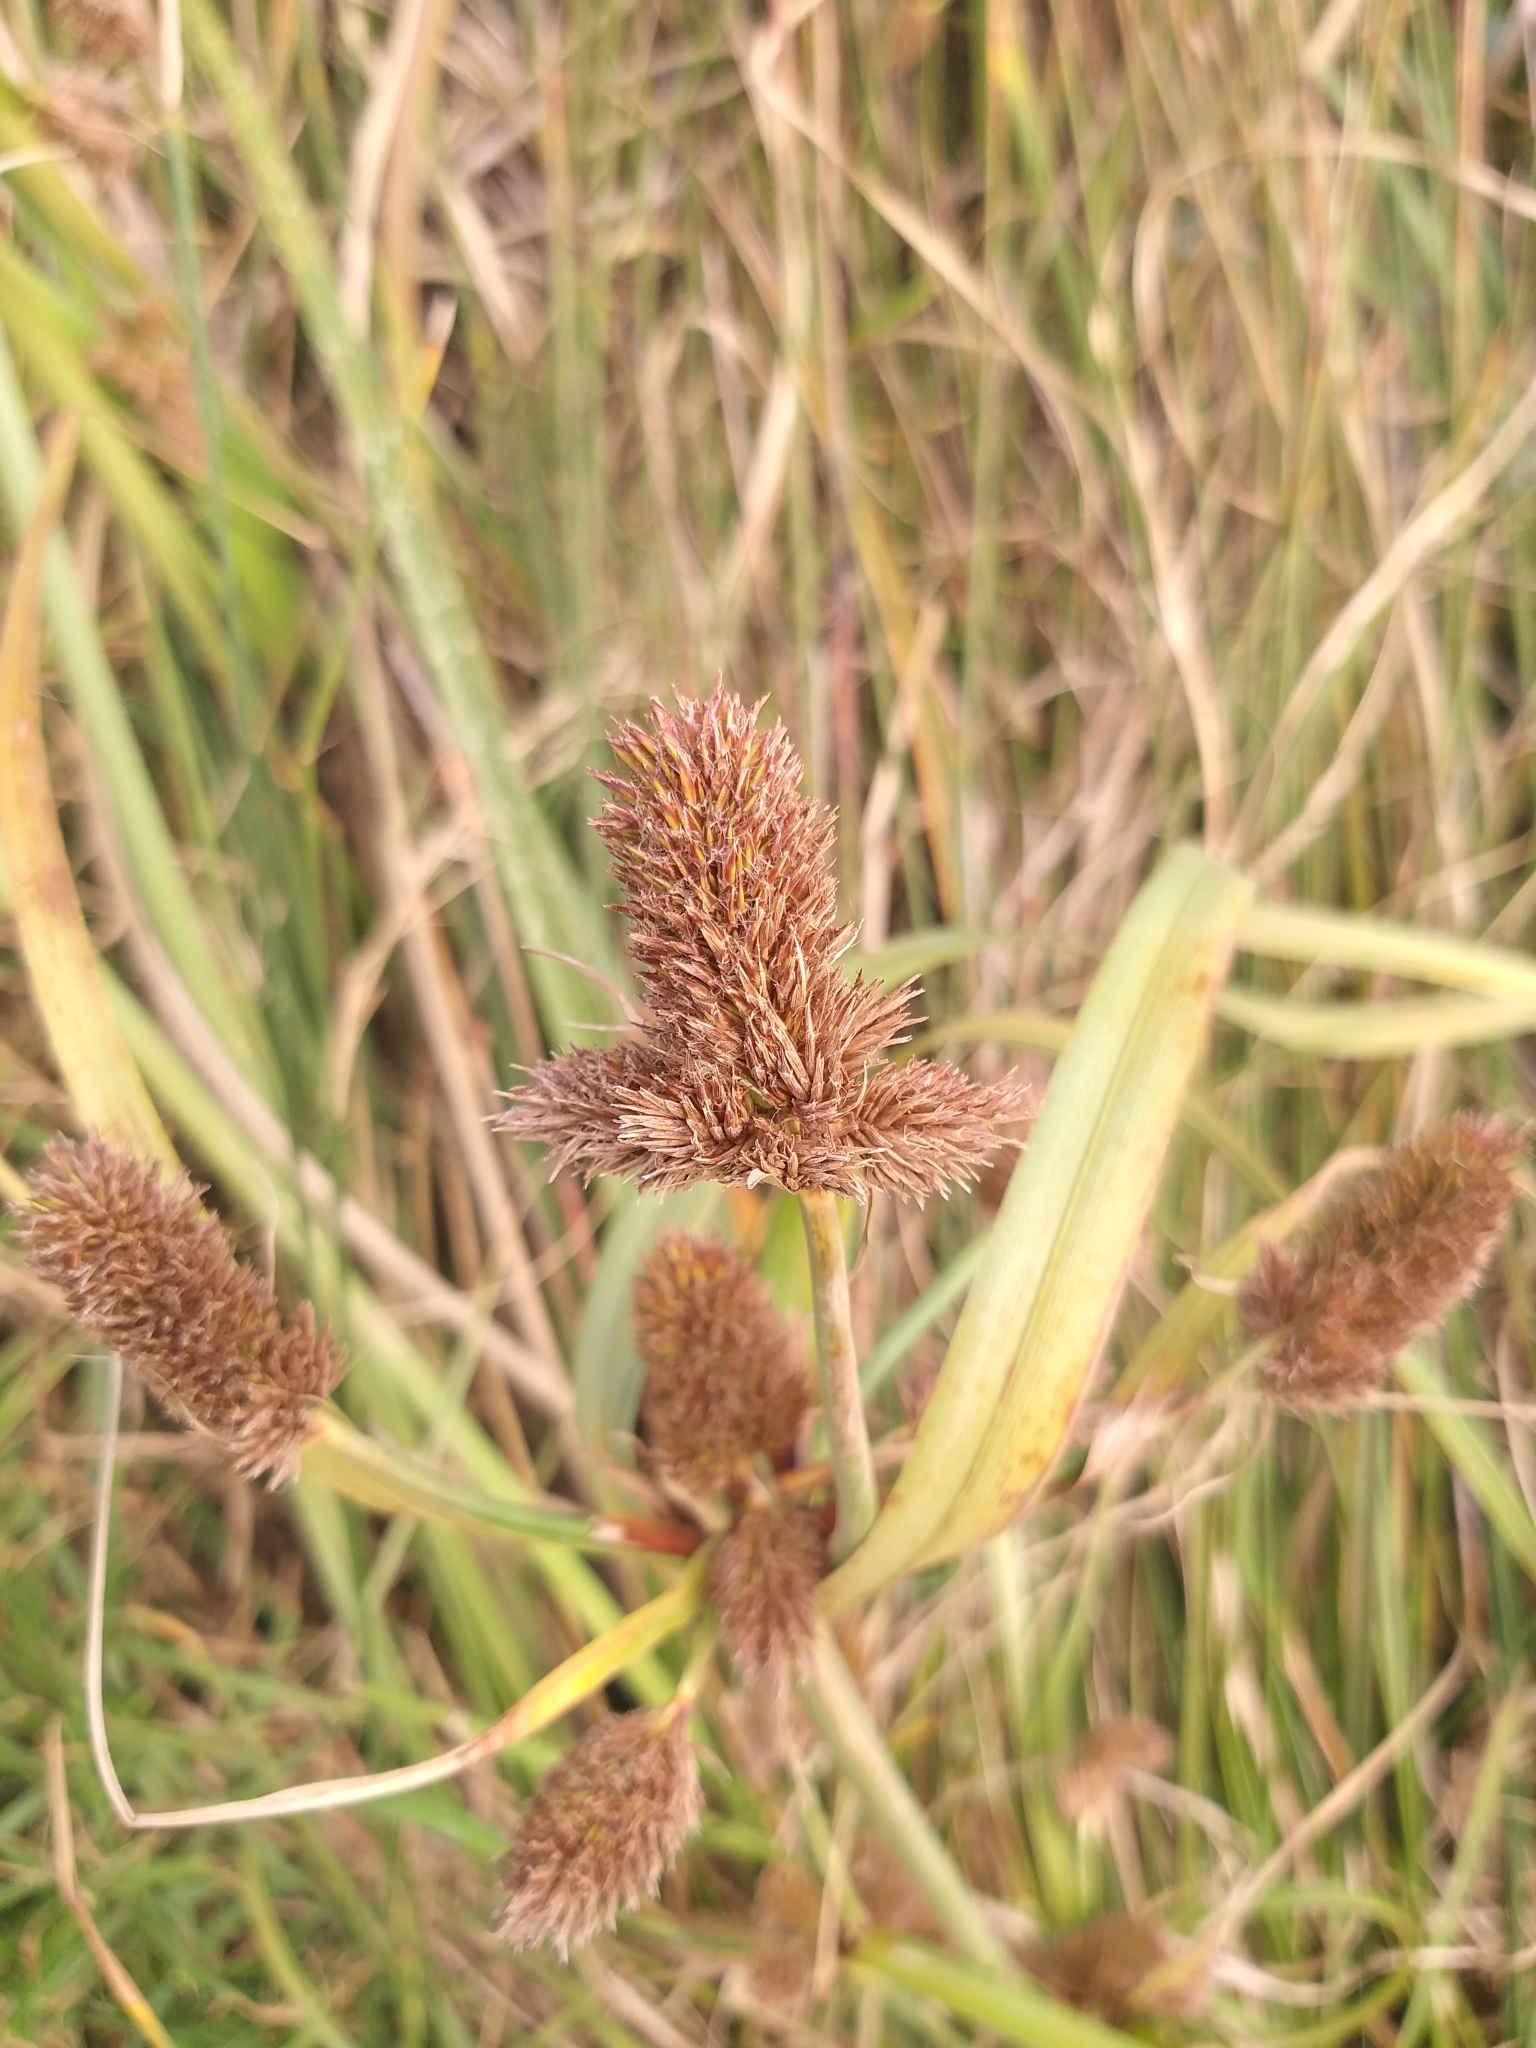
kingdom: Plantae
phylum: Tracheophyta
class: Liliopsida
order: Poales
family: Cyperaceae
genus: Cyperus
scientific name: Cyperus thunbergii
